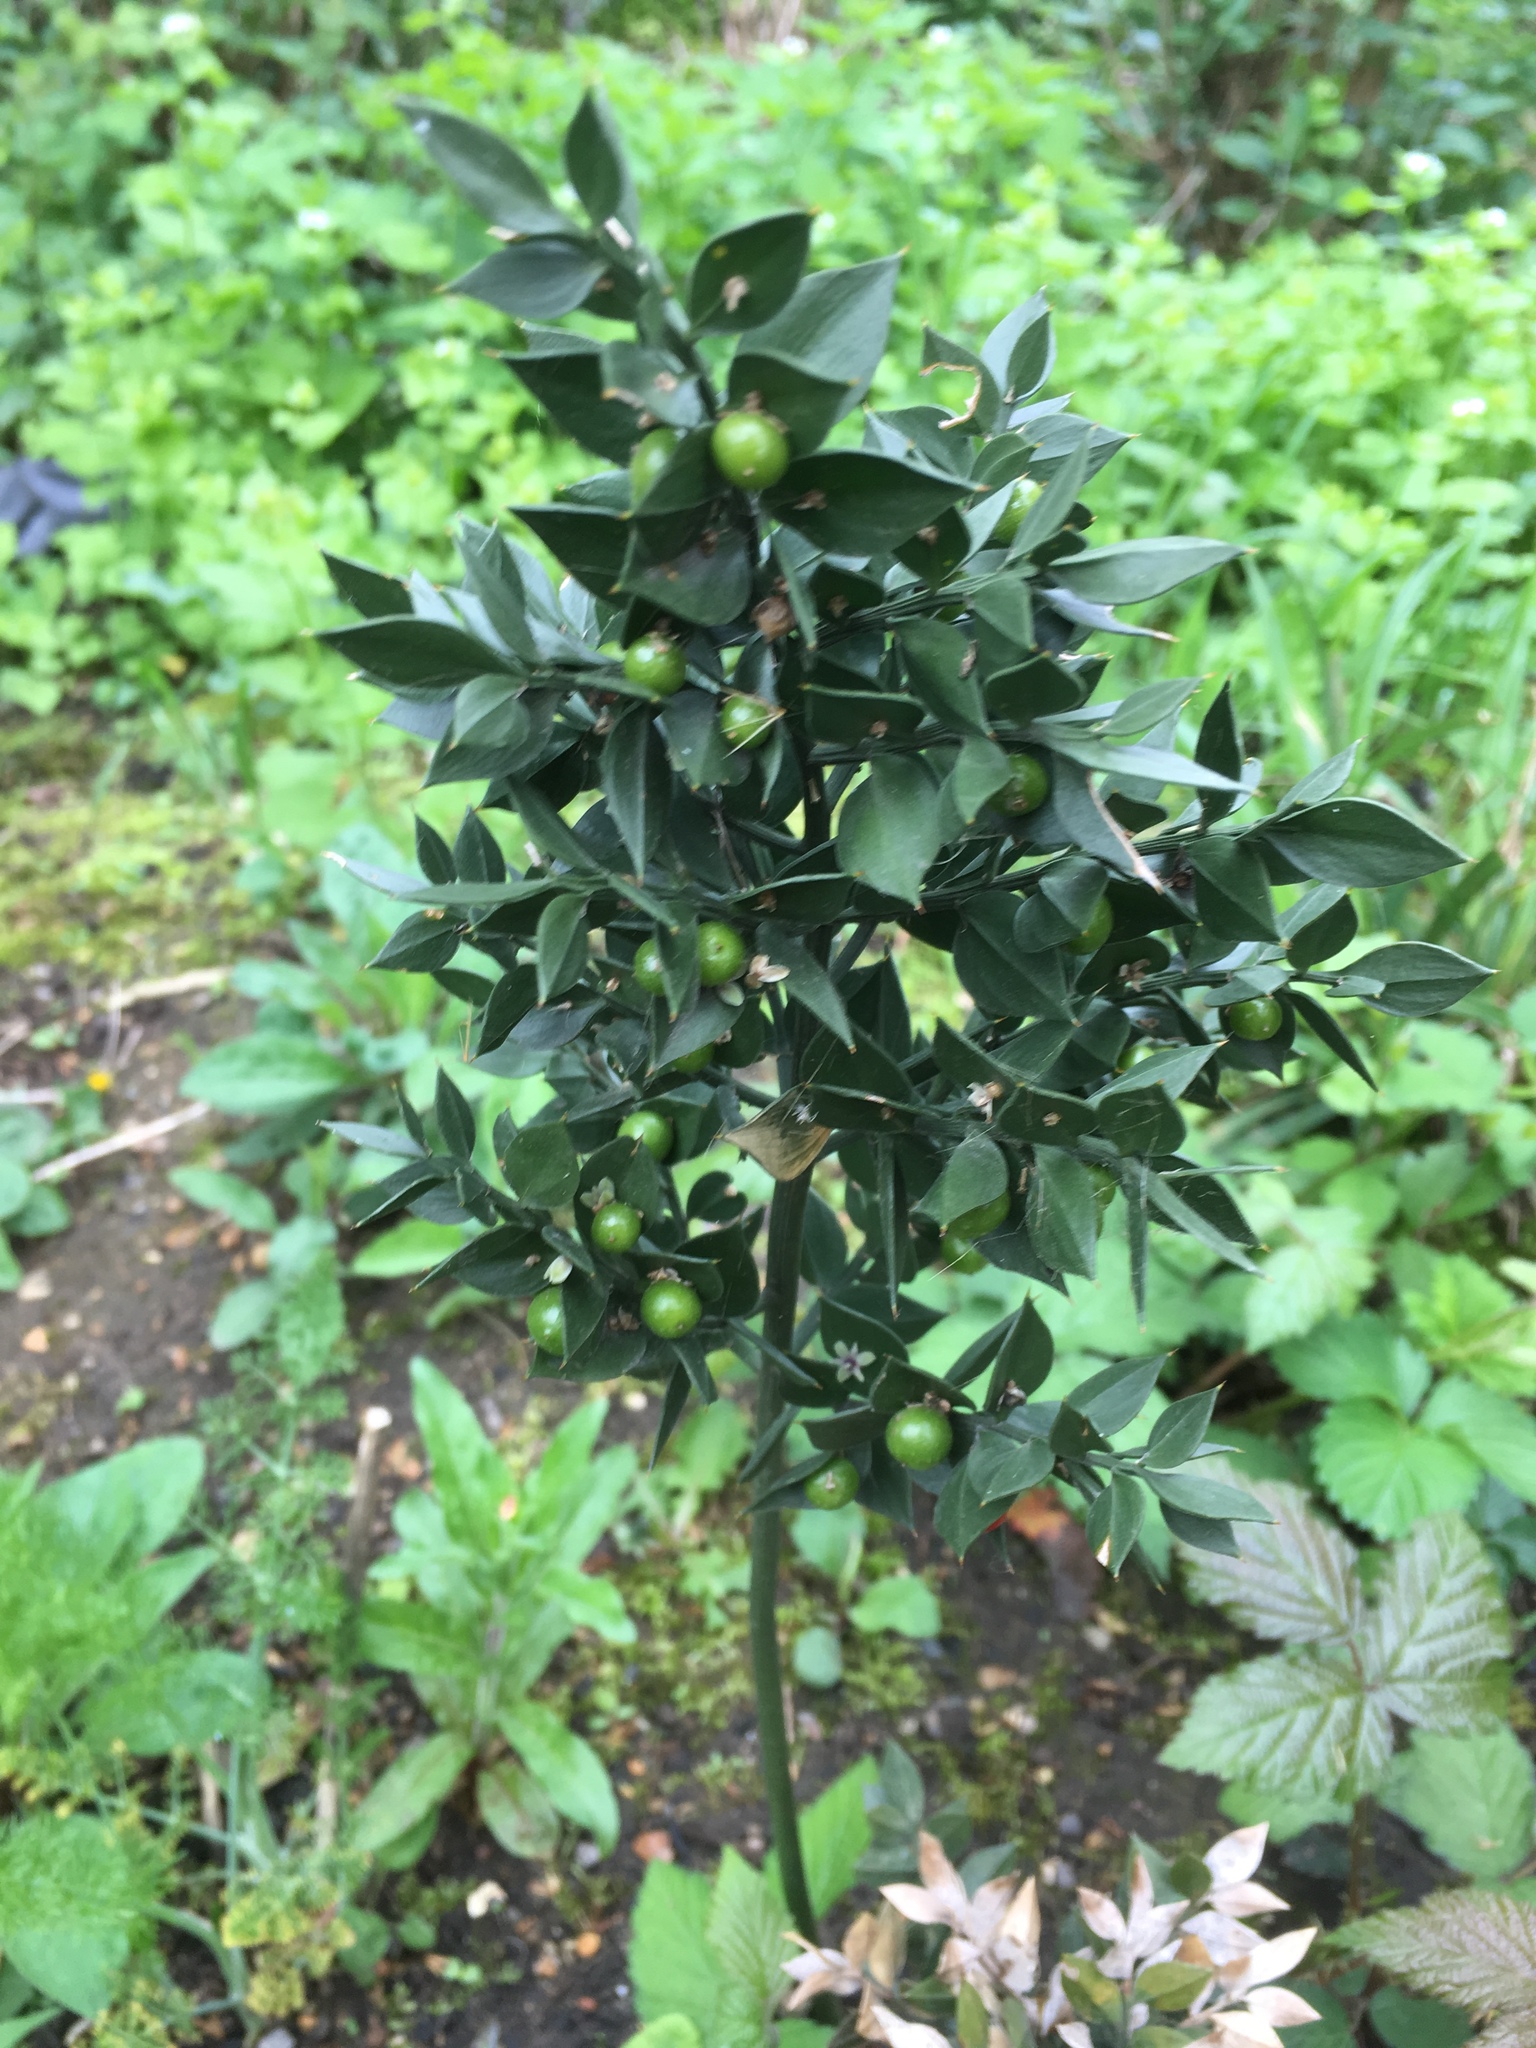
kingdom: Plantae
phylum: Tracheophyta
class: Liliopsida
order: Asparagales
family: Asparagaceae
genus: Ruscus
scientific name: Ruscus aculeatus
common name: Butcher's-broom
